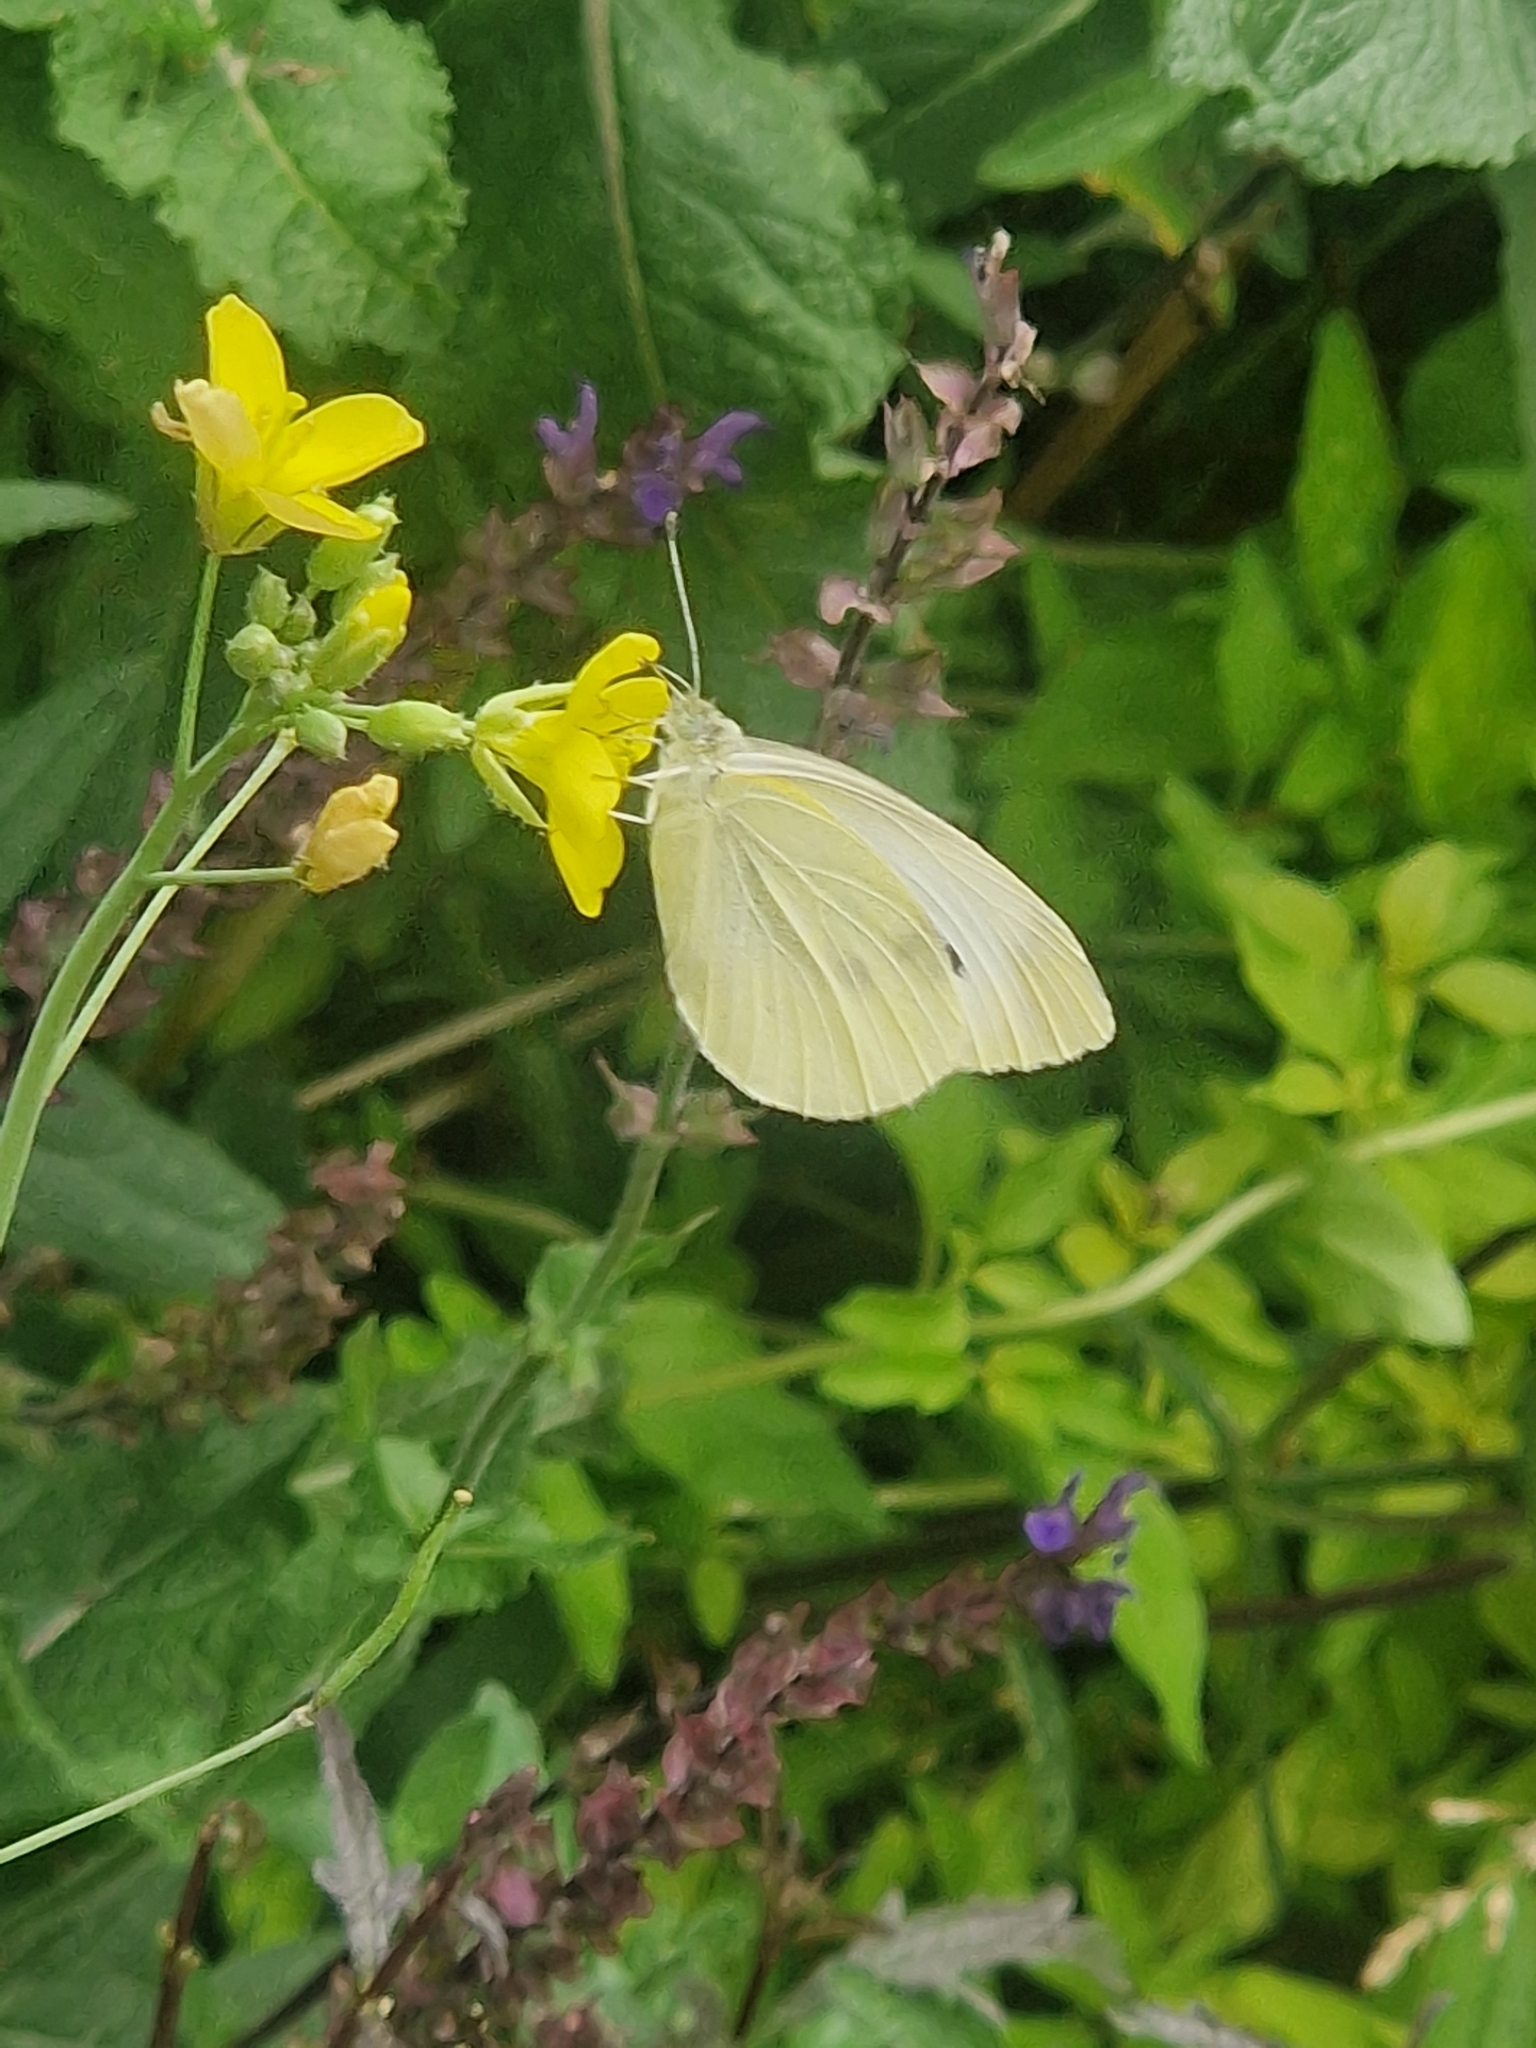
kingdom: Animalia
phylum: Arthropoda
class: Insecta
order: Lepidoptera
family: Pieridae
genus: Pieris
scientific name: Pieris rapae
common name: Small white
